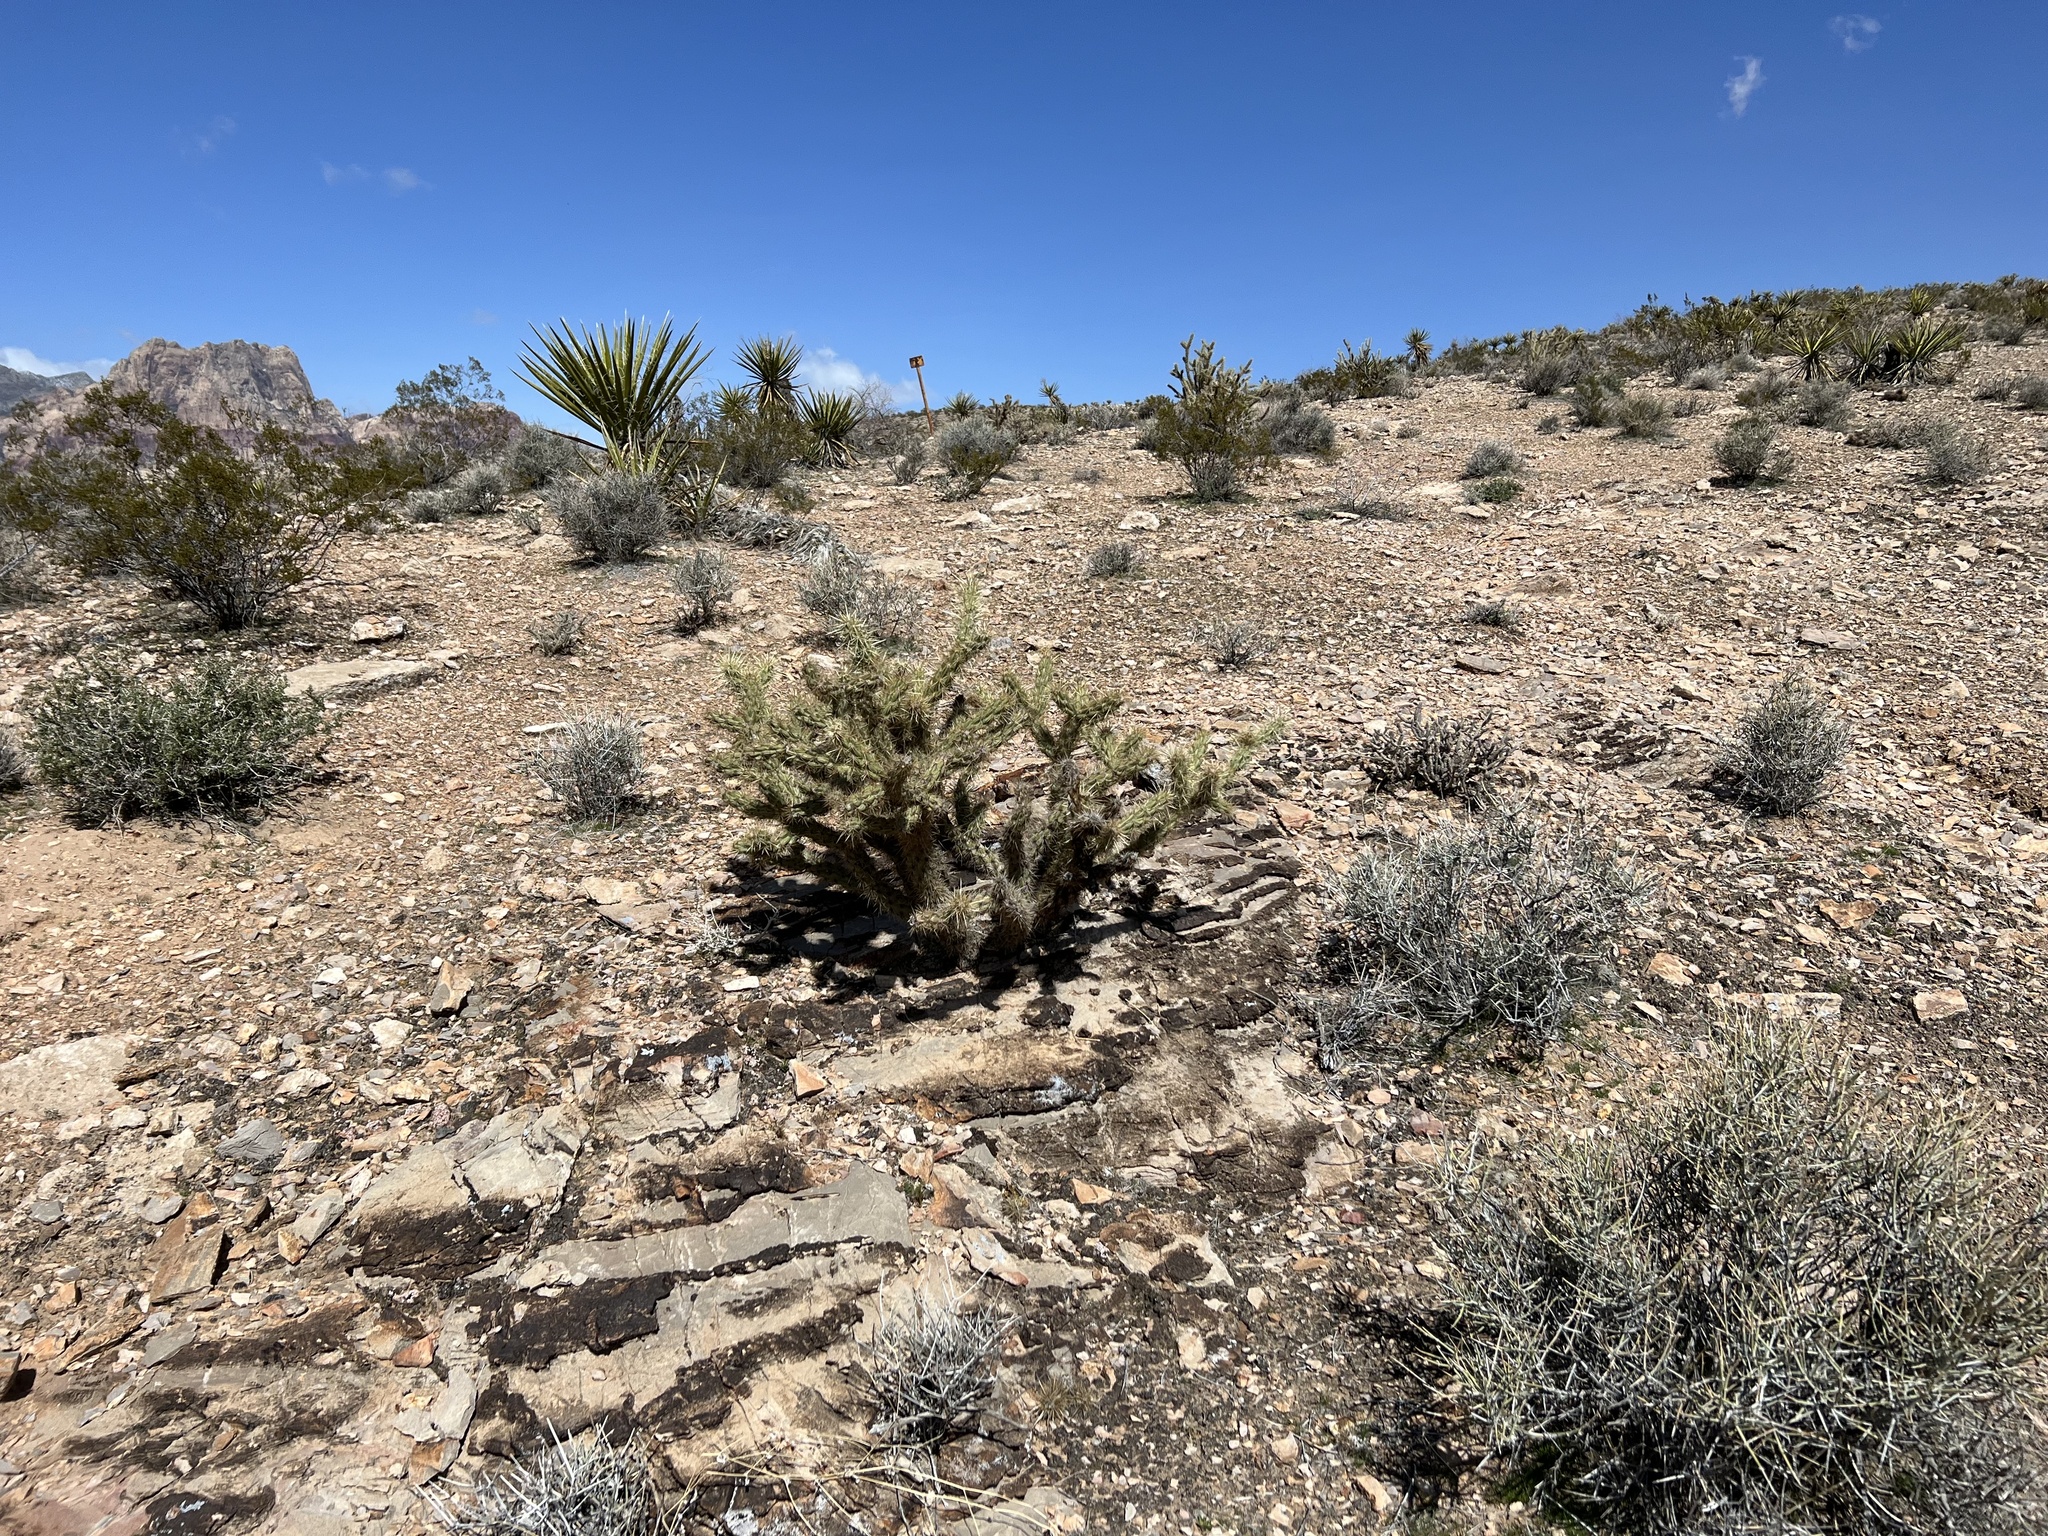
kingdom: Plantae
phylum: Tracheophyta
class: Magnoliopsida
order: Caryophyllales
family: Cactaceae
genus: Cylindropuntia
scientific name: Cylindropuntia acanthocarpa
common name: Buckhorn cholla
